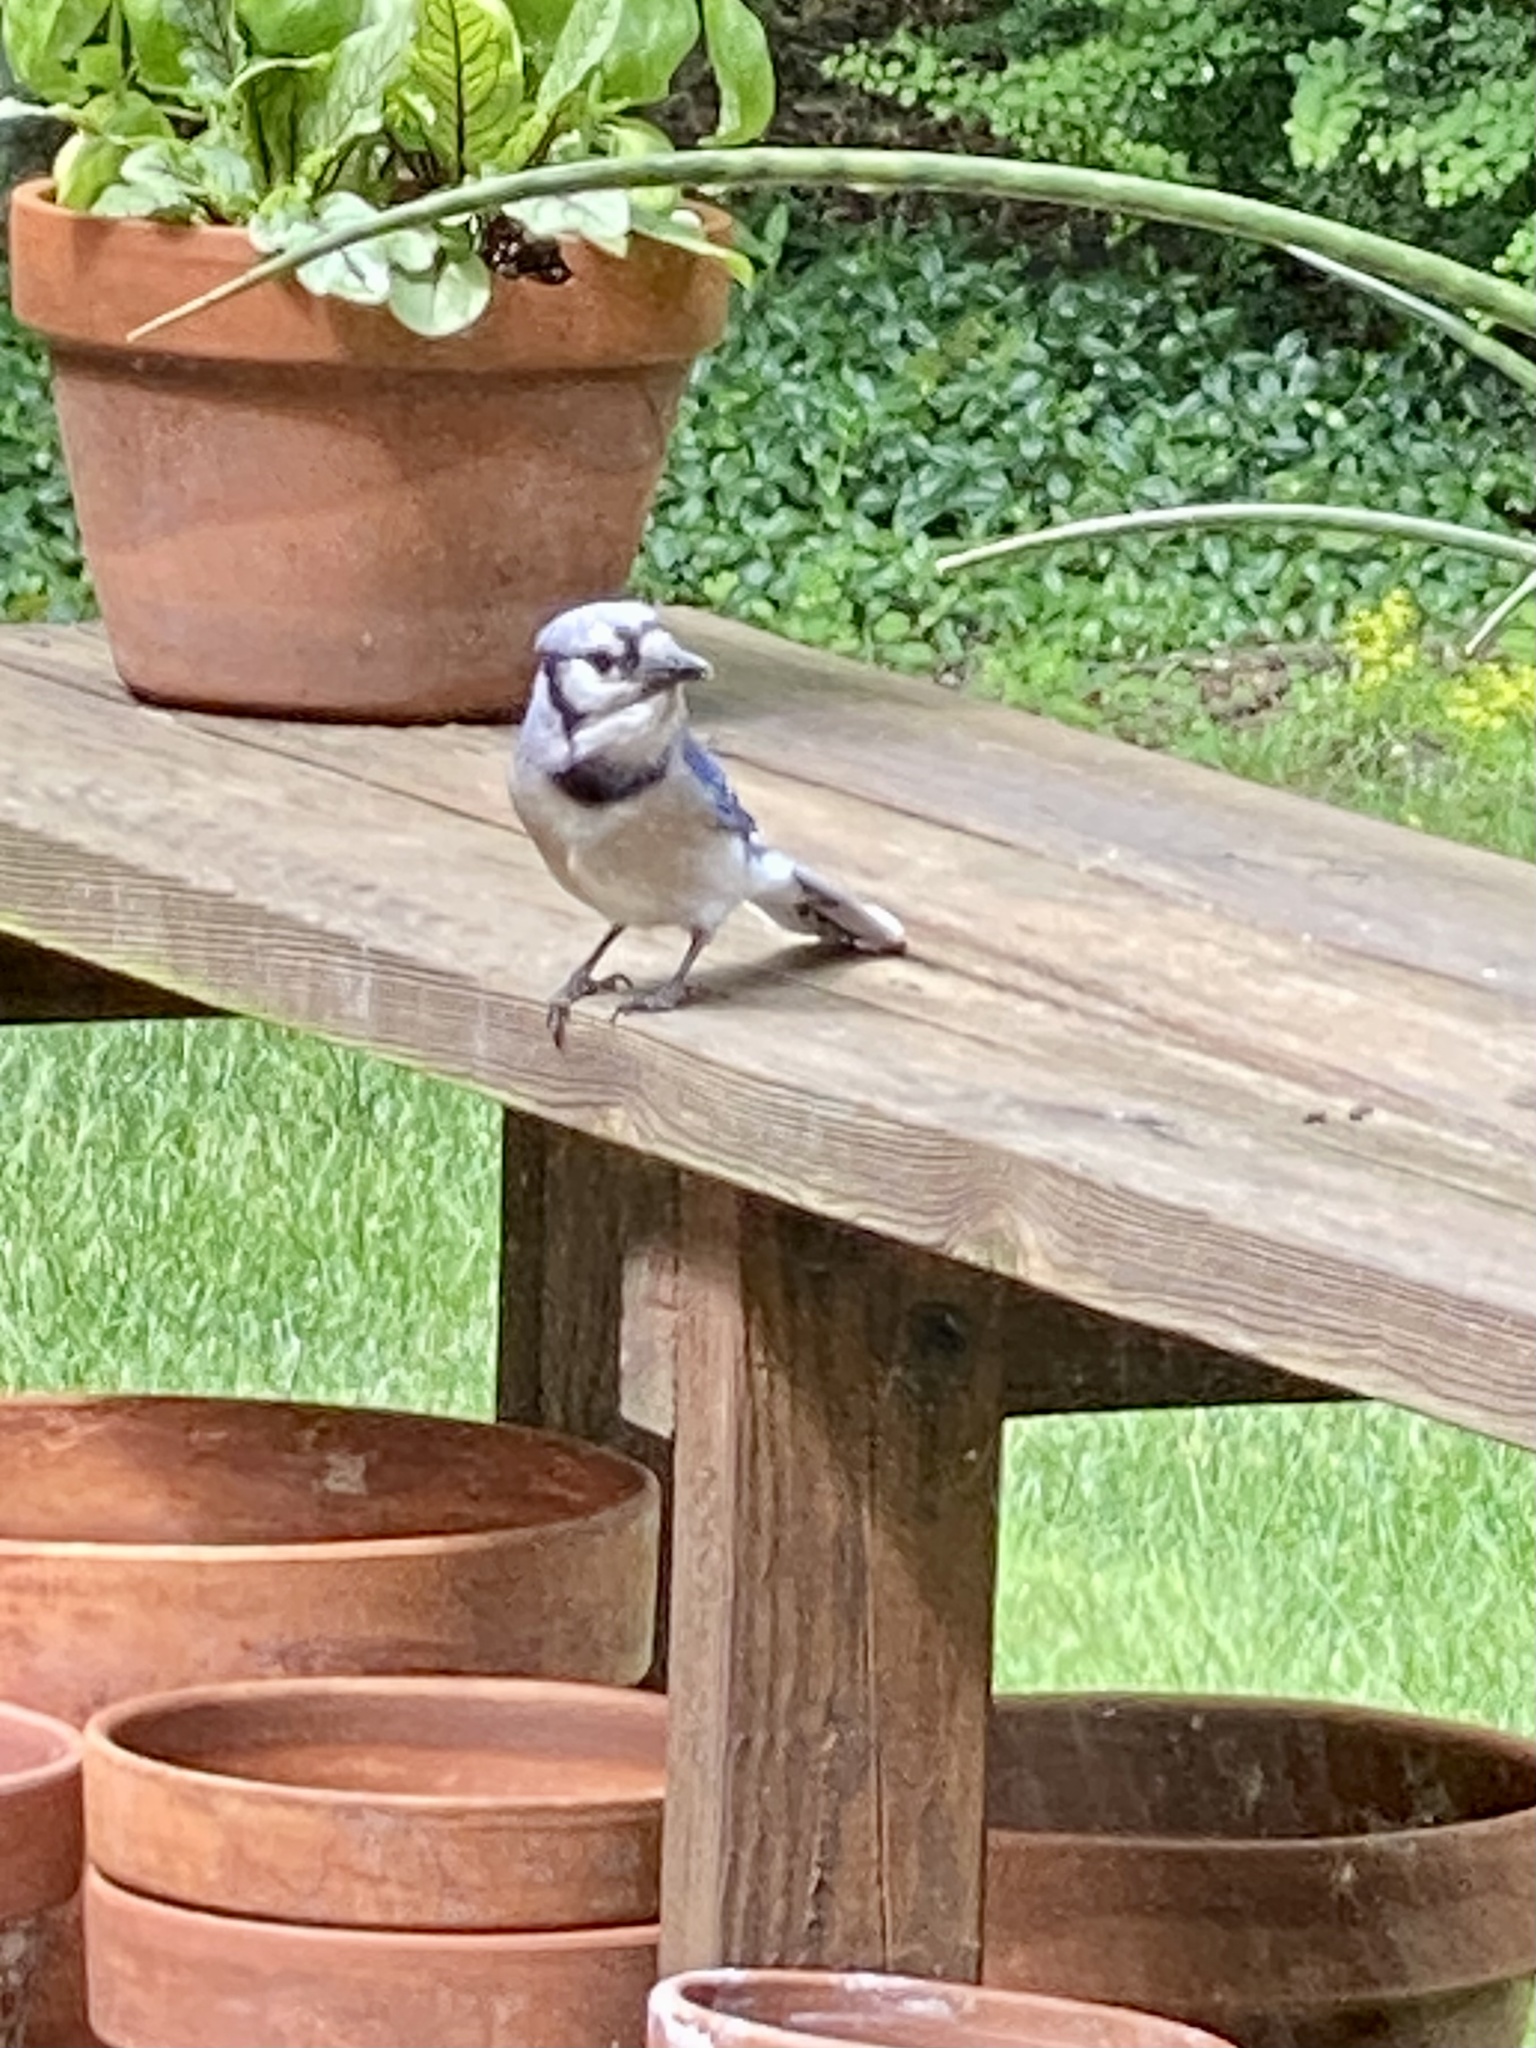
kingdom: Animalia
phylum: Chordata
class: Aves
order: Passeriformes
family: Corvidae
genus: Cyanocitta
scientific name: Cyanocitta cristata
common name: Blue jay
